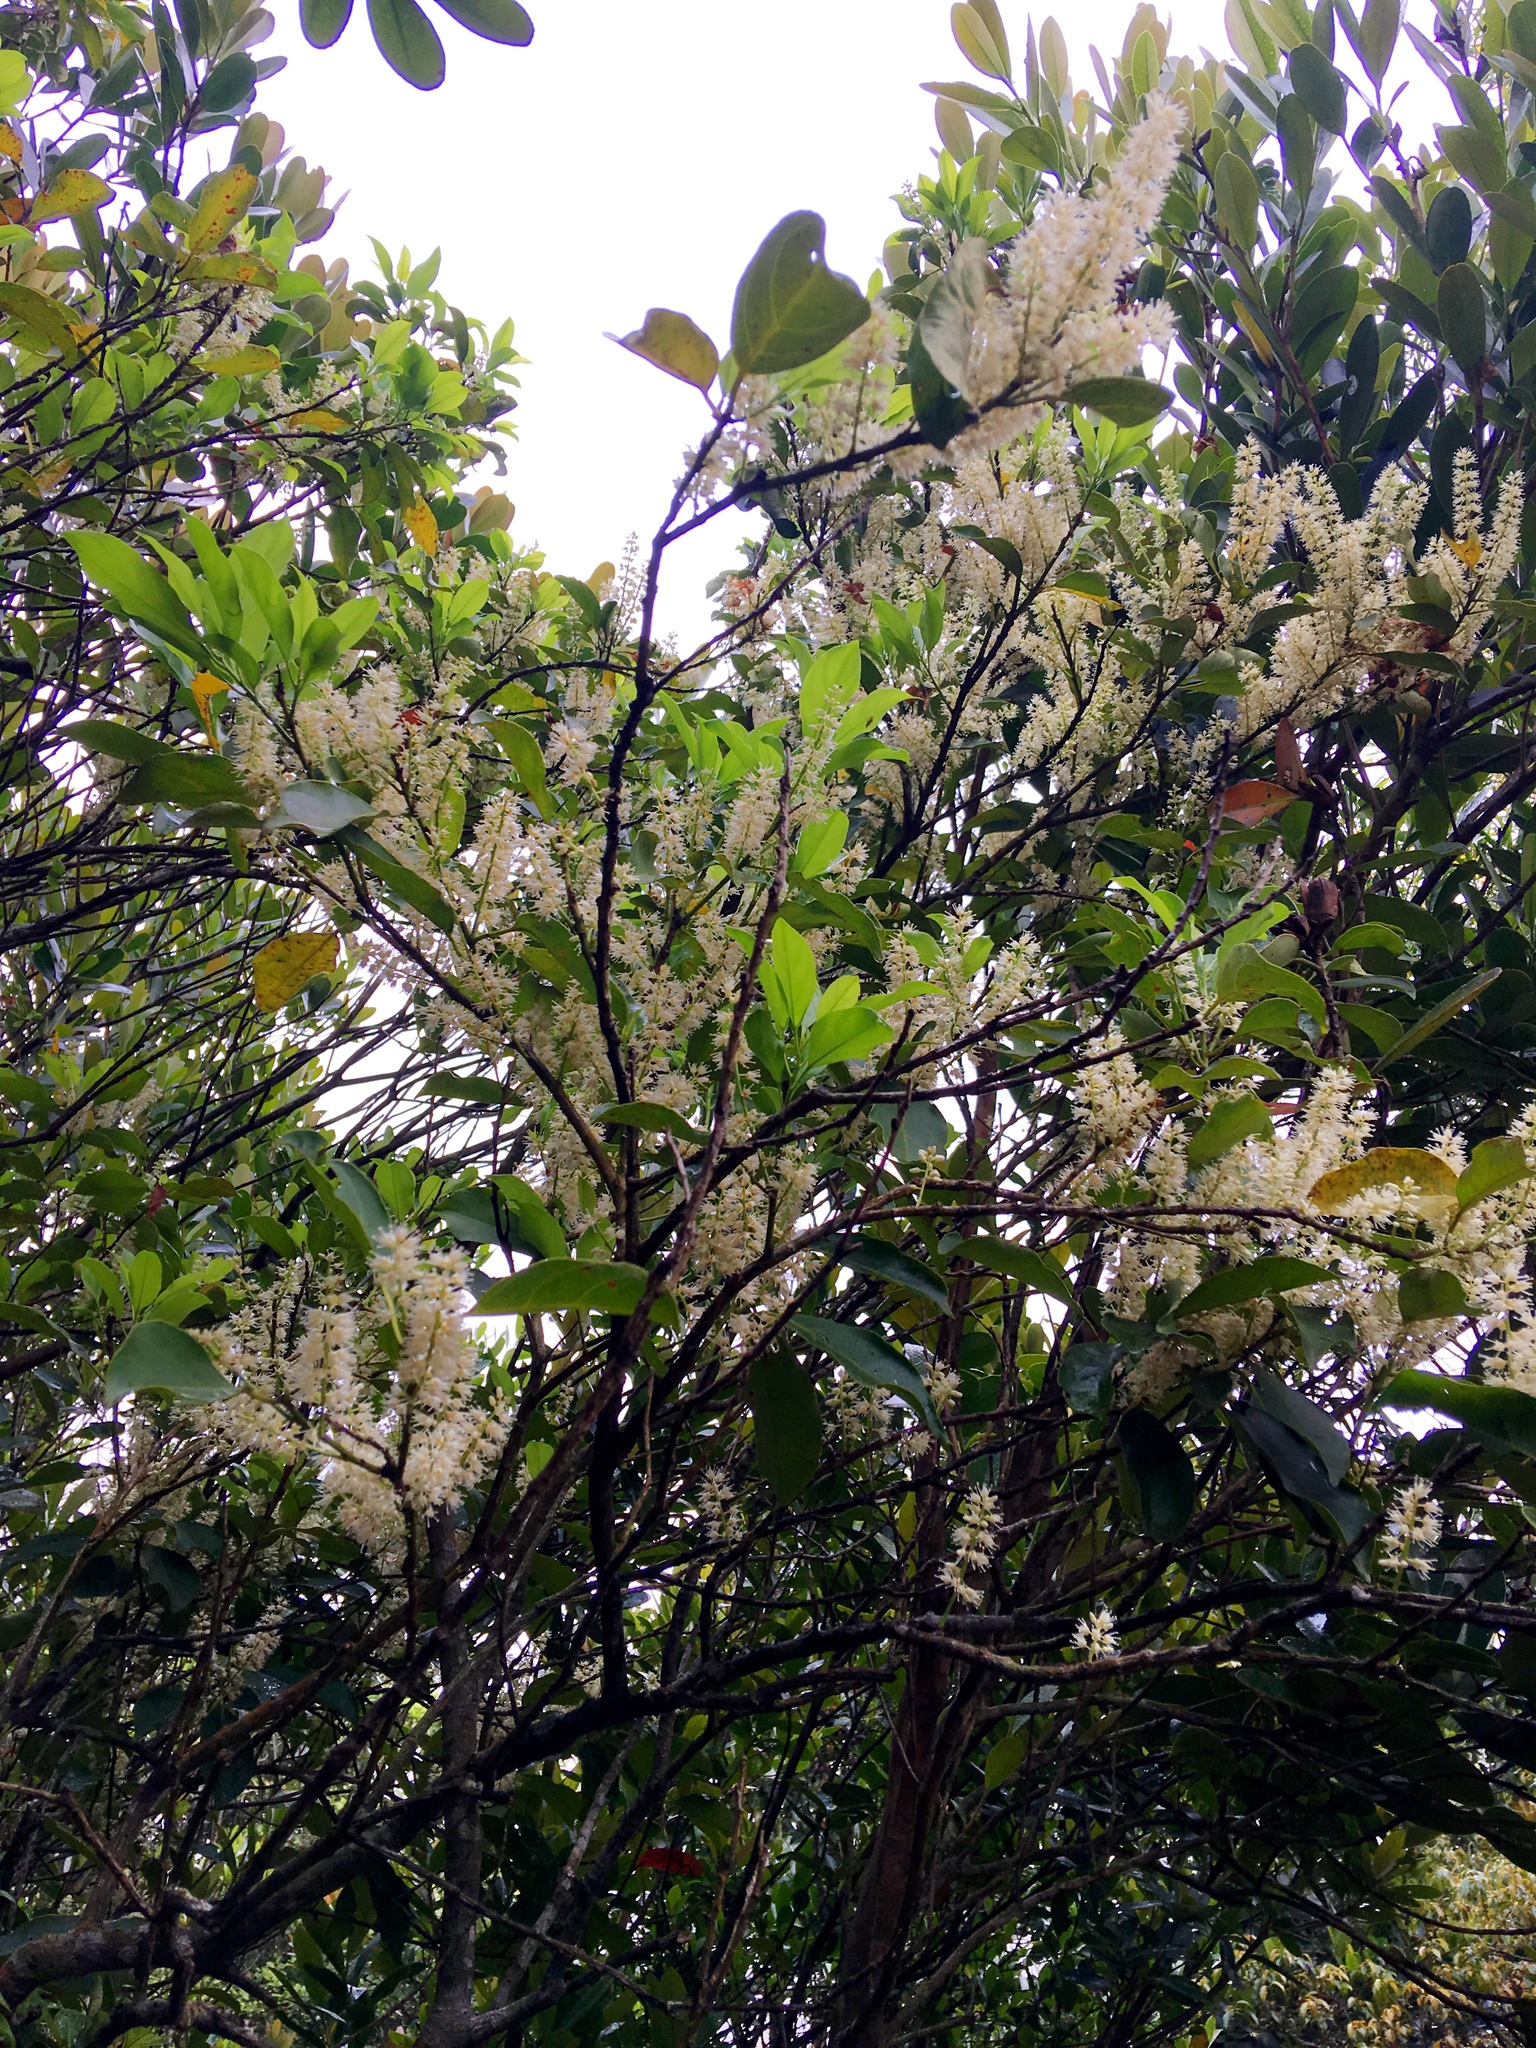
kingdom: Plantae
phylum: Tracheophyta
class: Magnoliopsida
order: Saxifragales
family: Iteaceae
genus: Itea
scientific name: Itea chinensis
